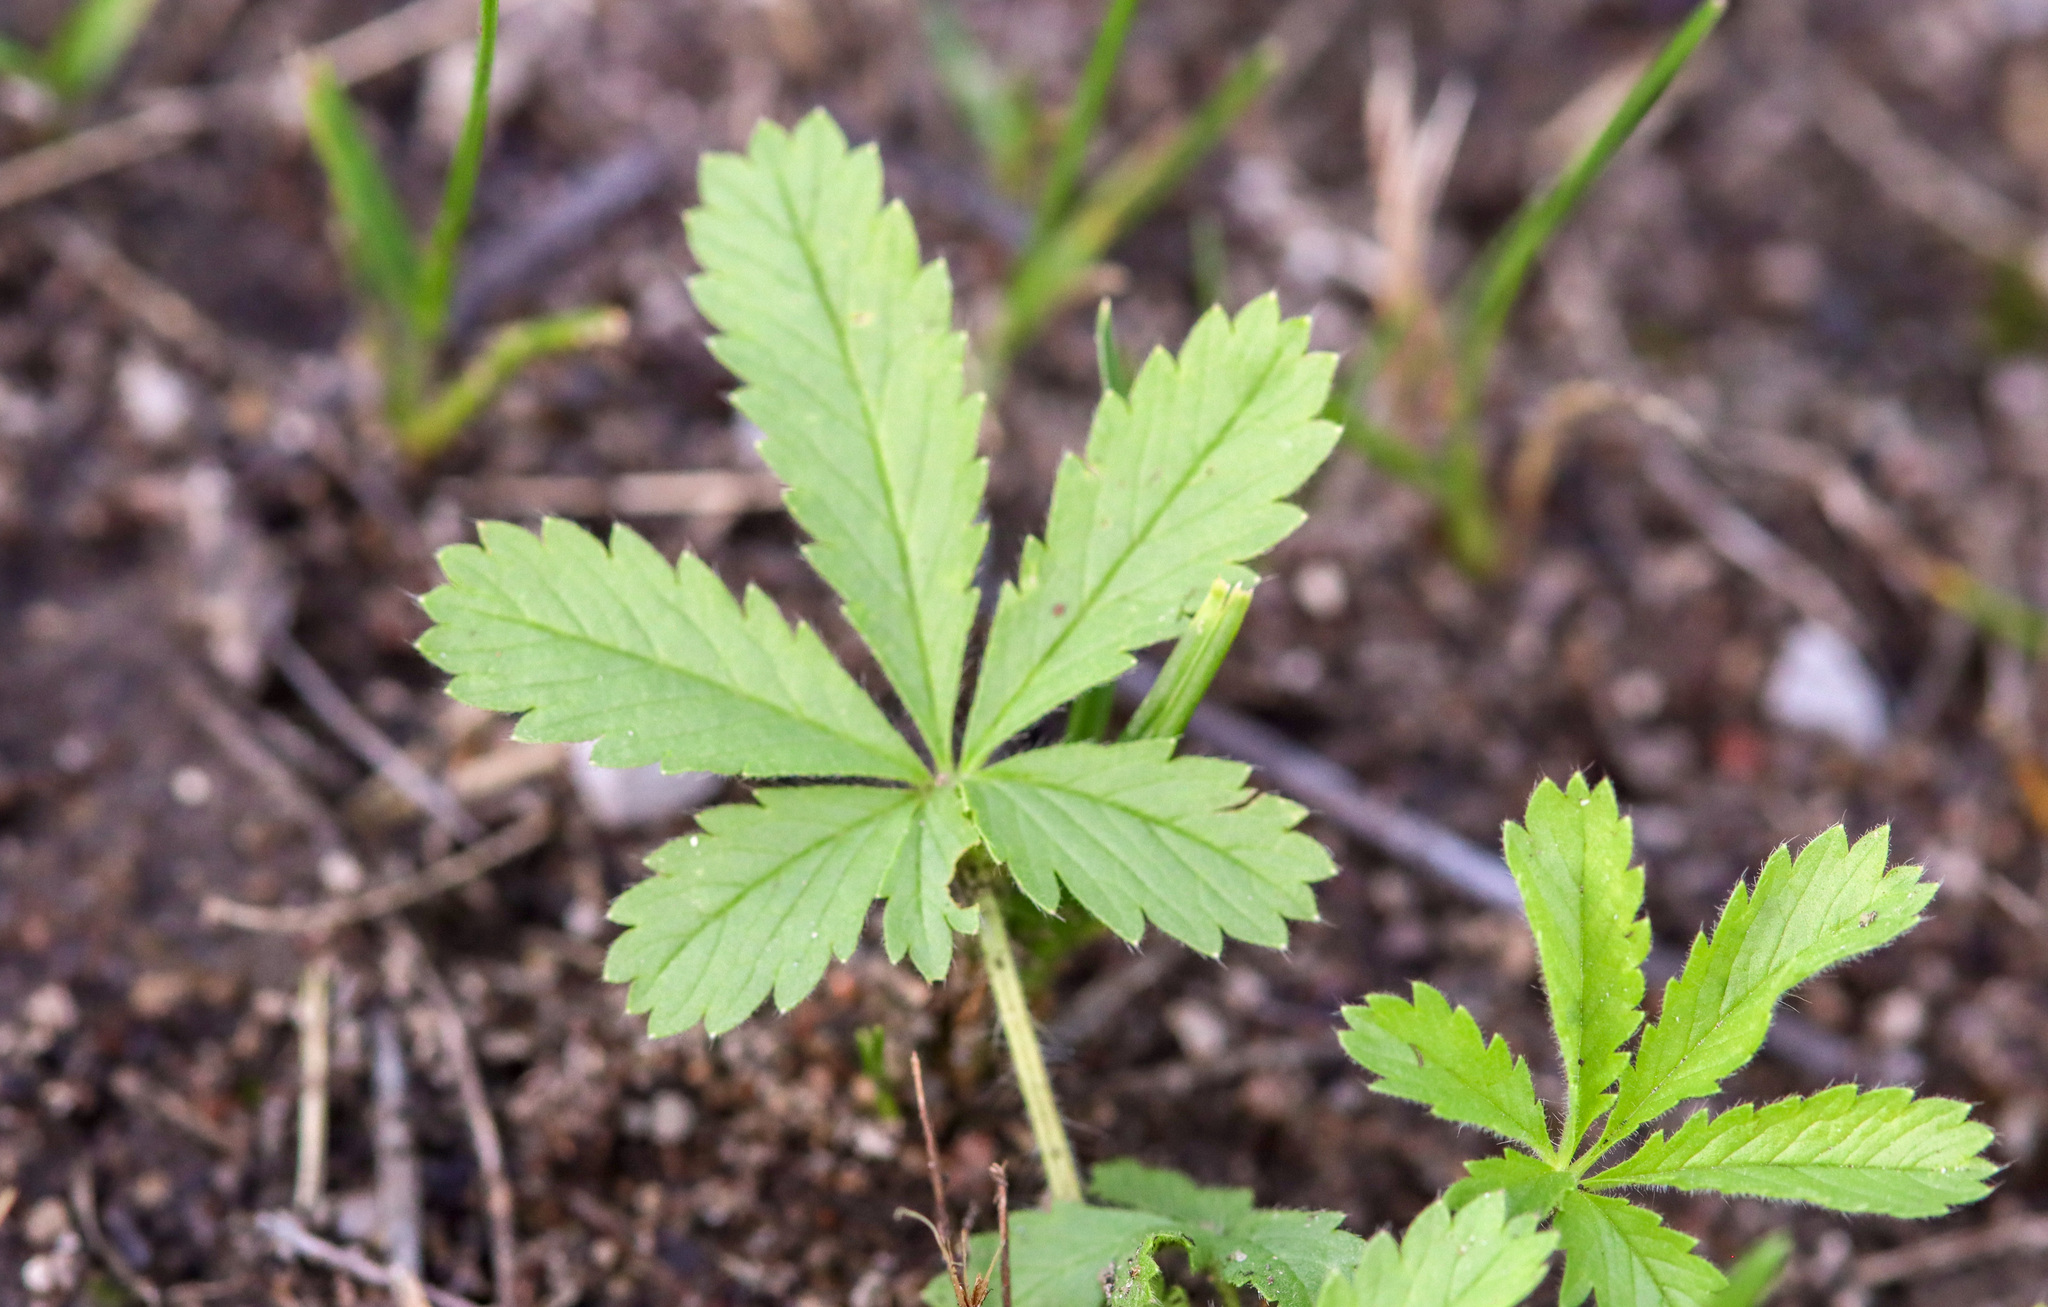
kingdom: Plantae
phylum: Tracheophyta
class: Magnoliopsida
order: Rosales
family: Rosaceae
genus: Potentilla
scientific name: Potentilla simplex
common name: Old field cinquefoil
